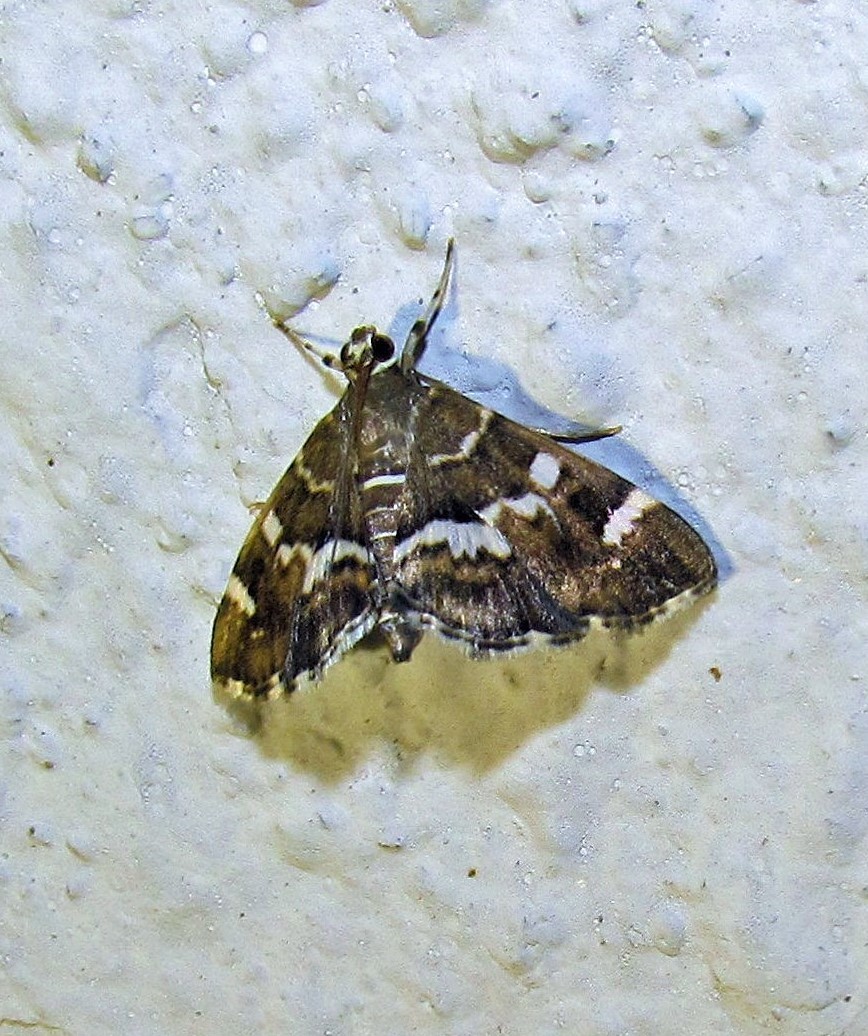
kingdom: Animalia
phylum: Arthropoda
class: Insecta
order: Lepidoptera
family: Crambidae
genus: Hymenia
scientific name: Hymenia perspectalis
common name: Spotted beet webworm
